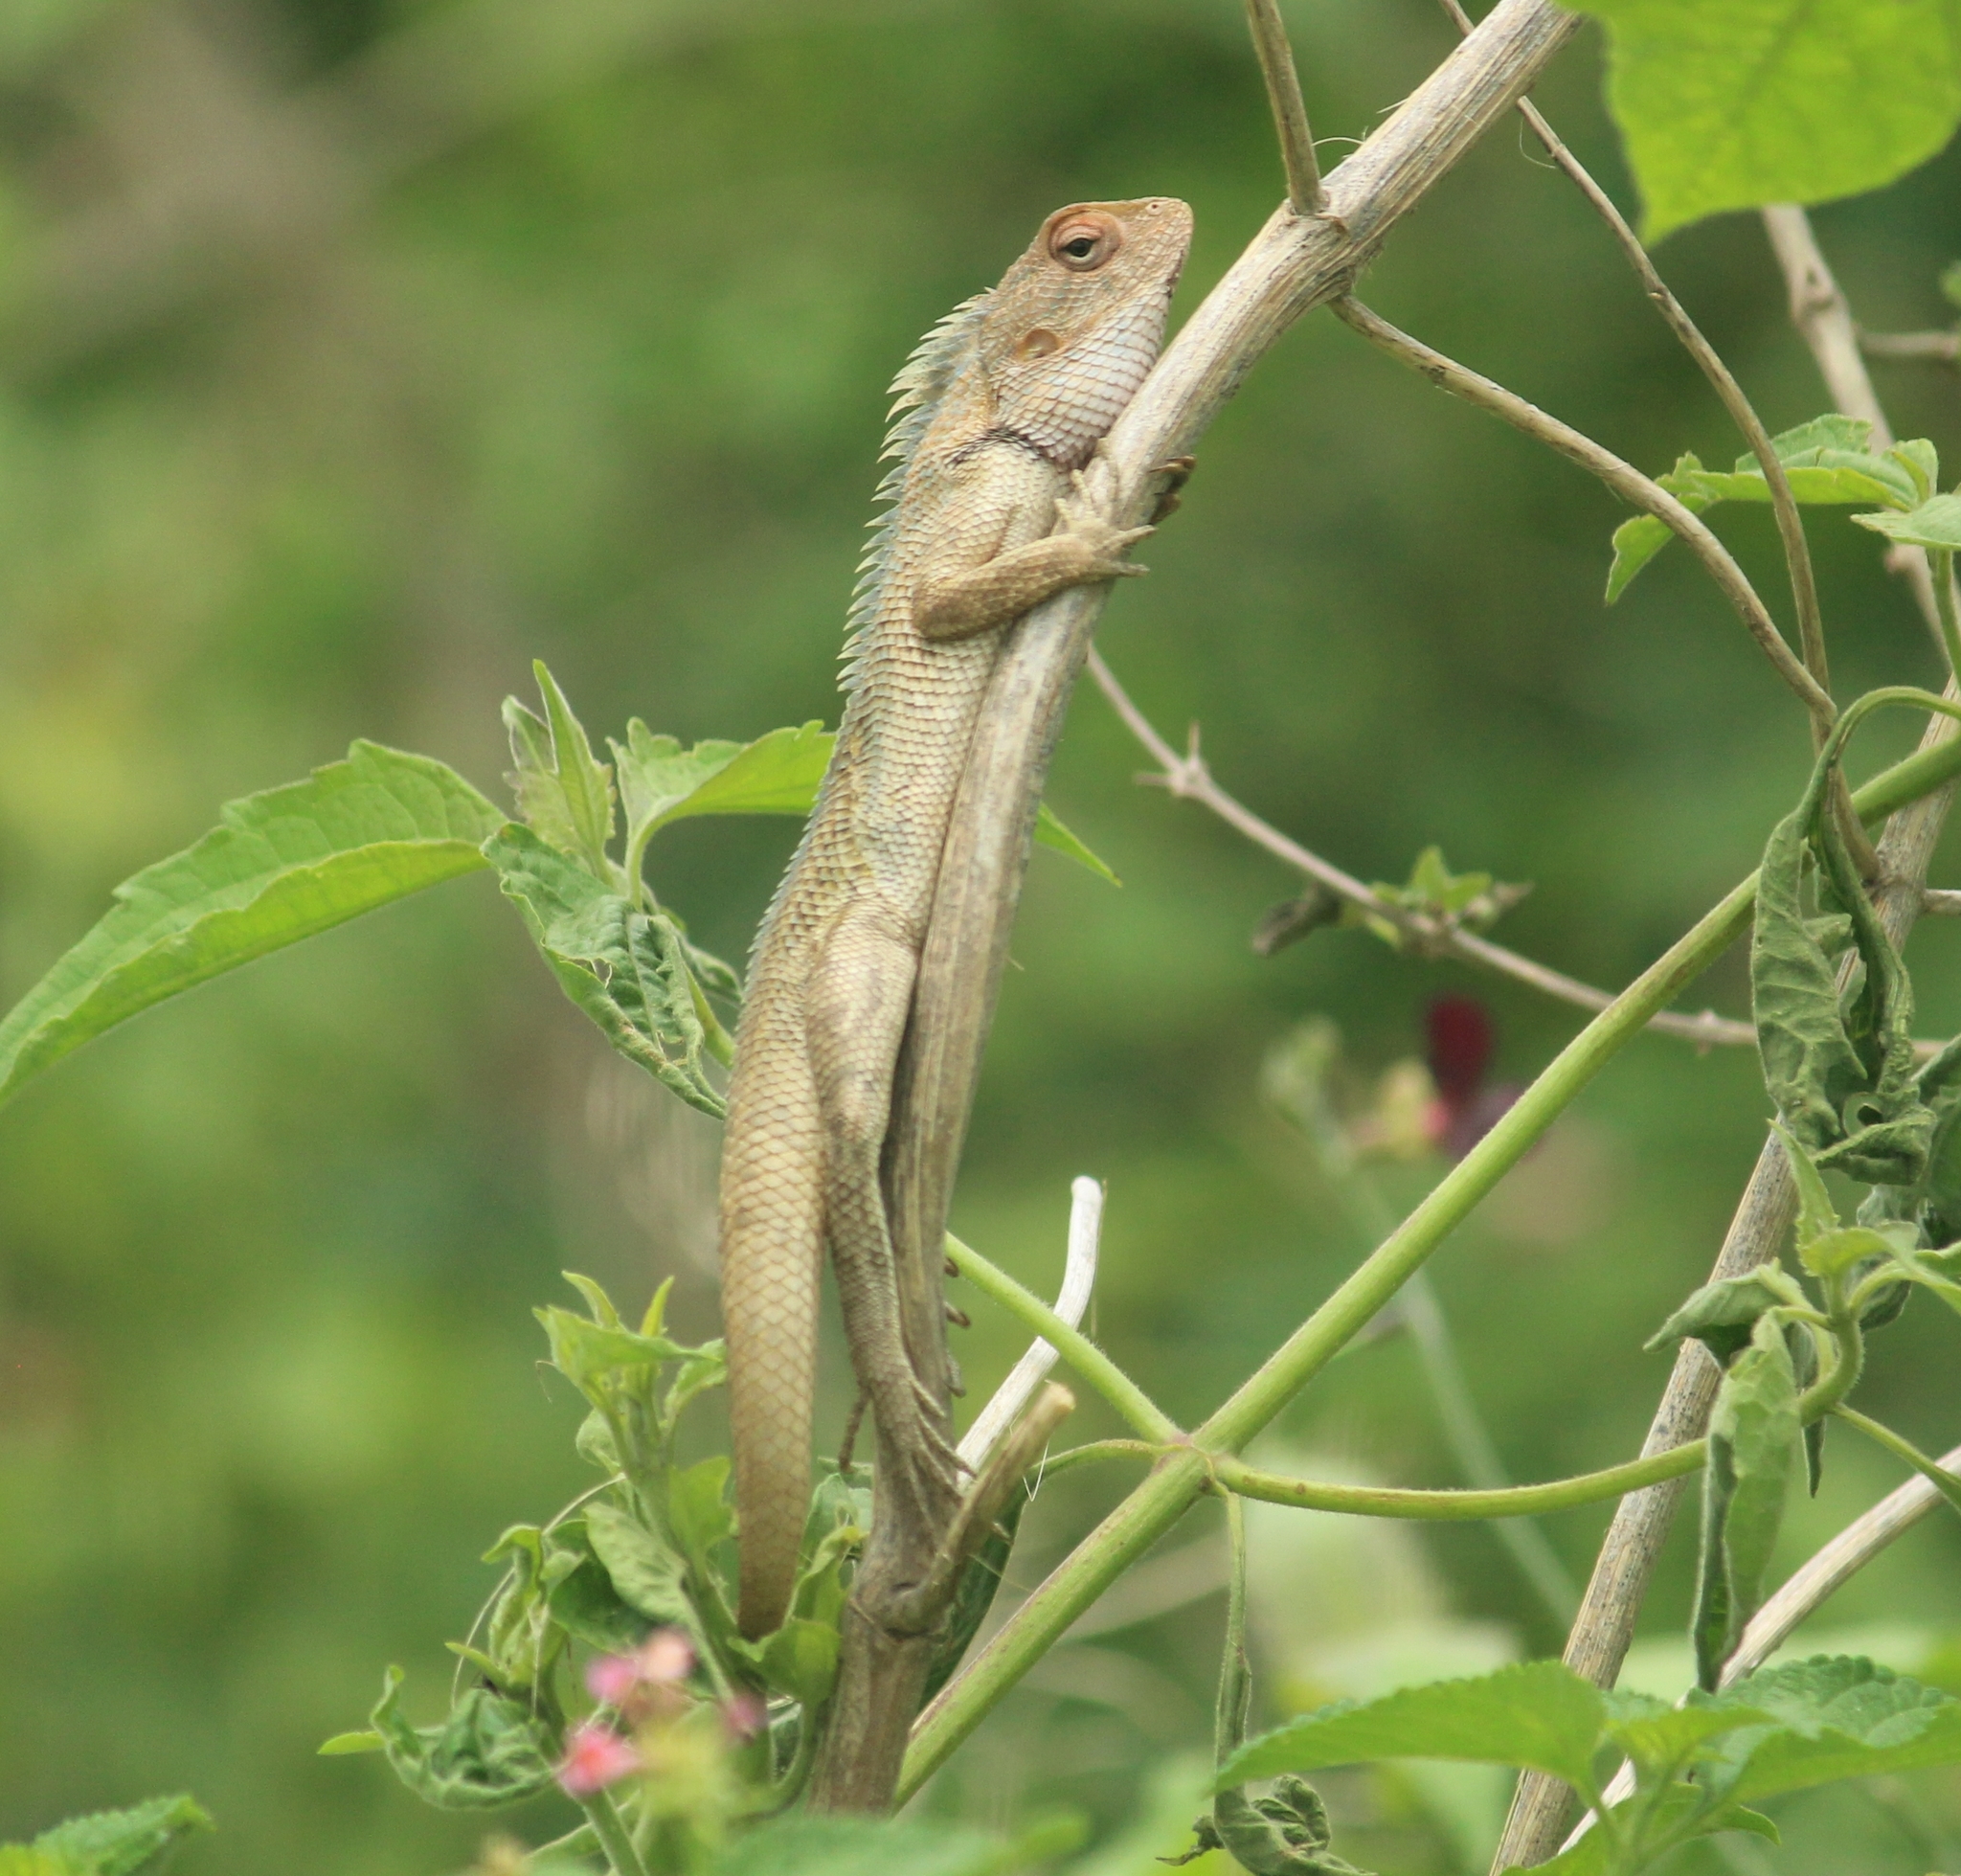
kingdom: Animalia
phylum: Chordata
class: Squamata
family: Agamidae
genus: Calotes
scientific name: Calotes versicolor
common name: Oriental garden lizard
